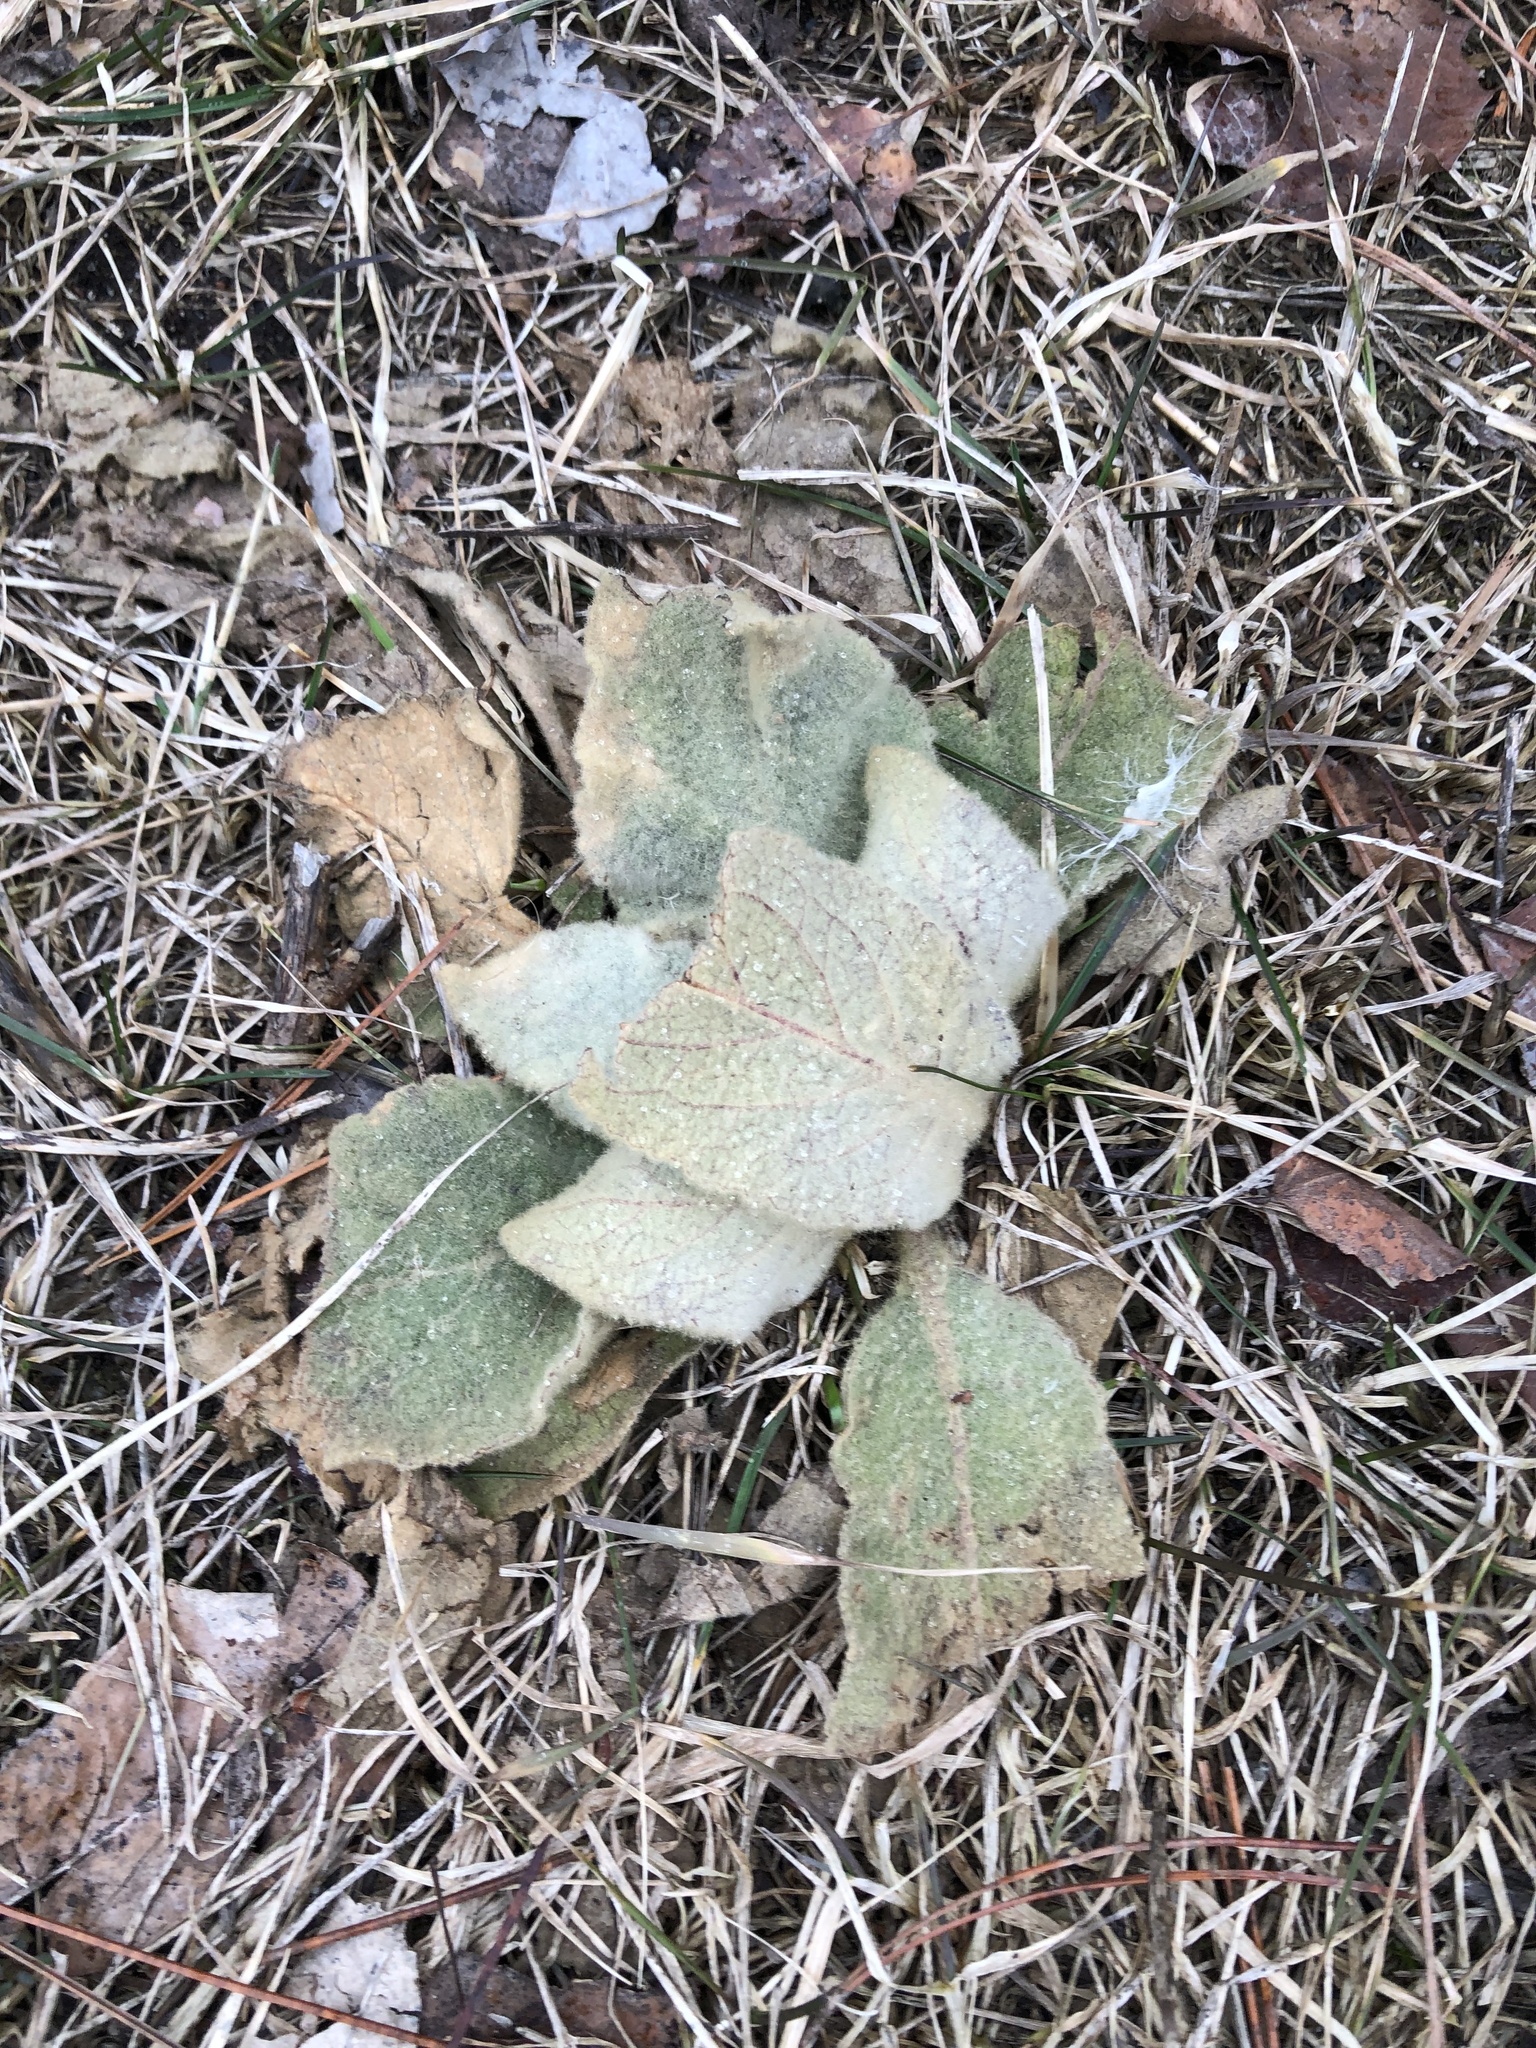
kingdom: Plantae
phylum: Tracheophyta
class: Magnoliopsida
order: Lamiales
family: Scrophulariaceae
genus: Verbascum
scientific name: Verbascum thapsus
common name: Common mullein
